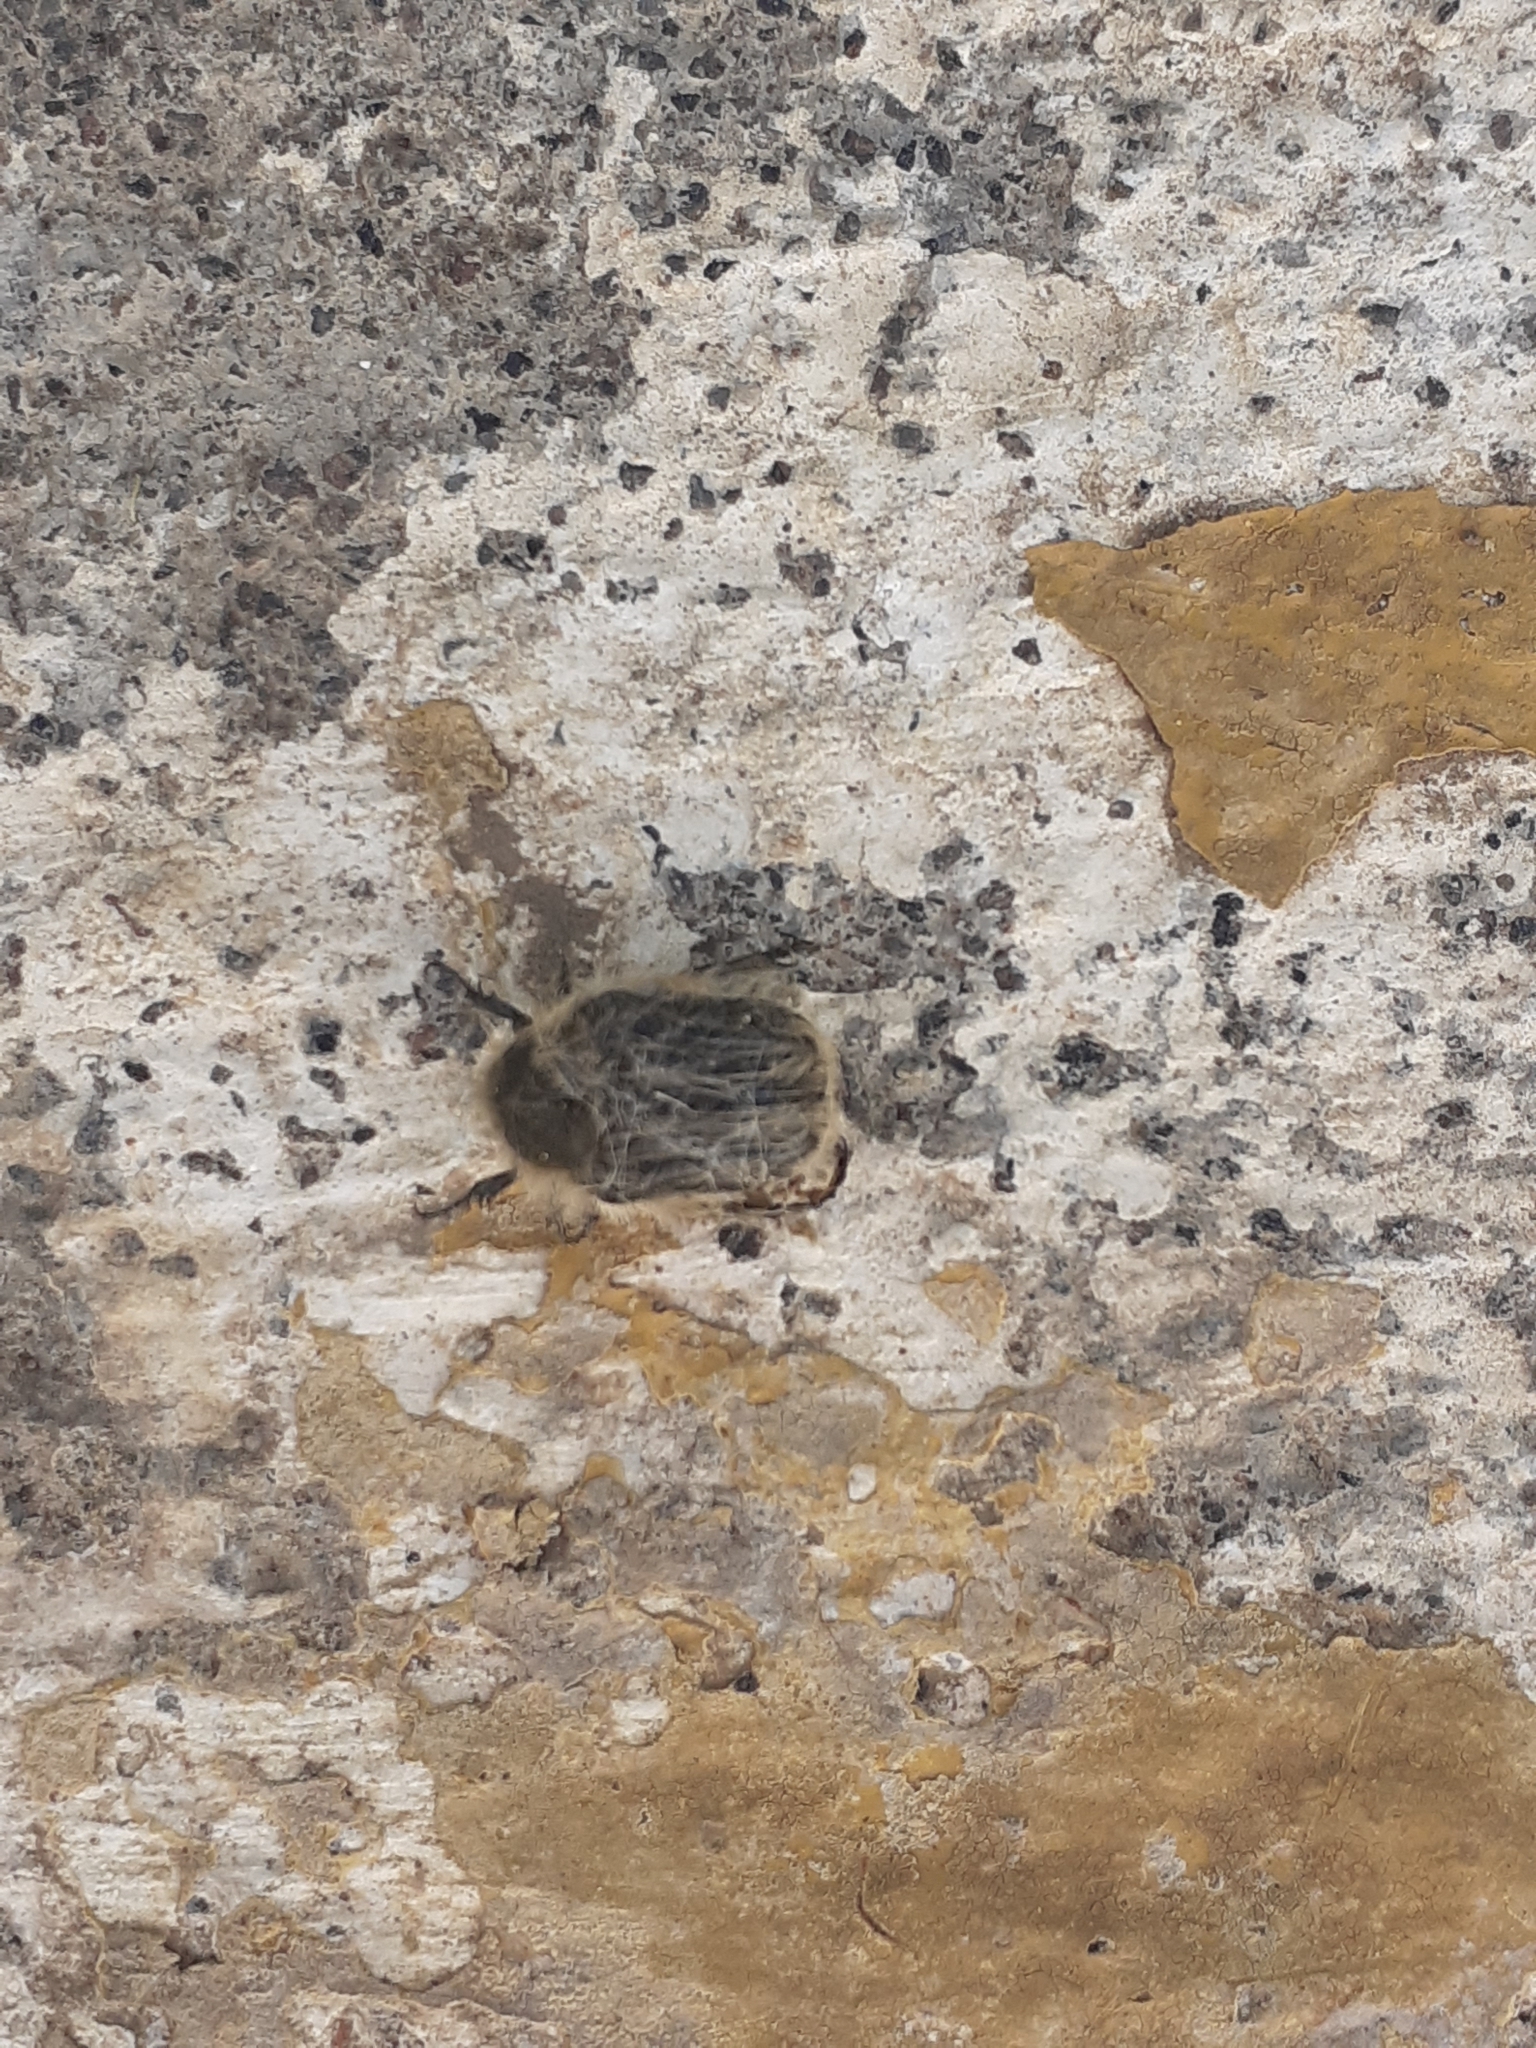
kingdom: Animalia
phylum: Arthropoda
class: Insecta
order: Coleoptera
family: Scarabaeidae
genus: Tropinota
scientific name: Tropinota squalida
